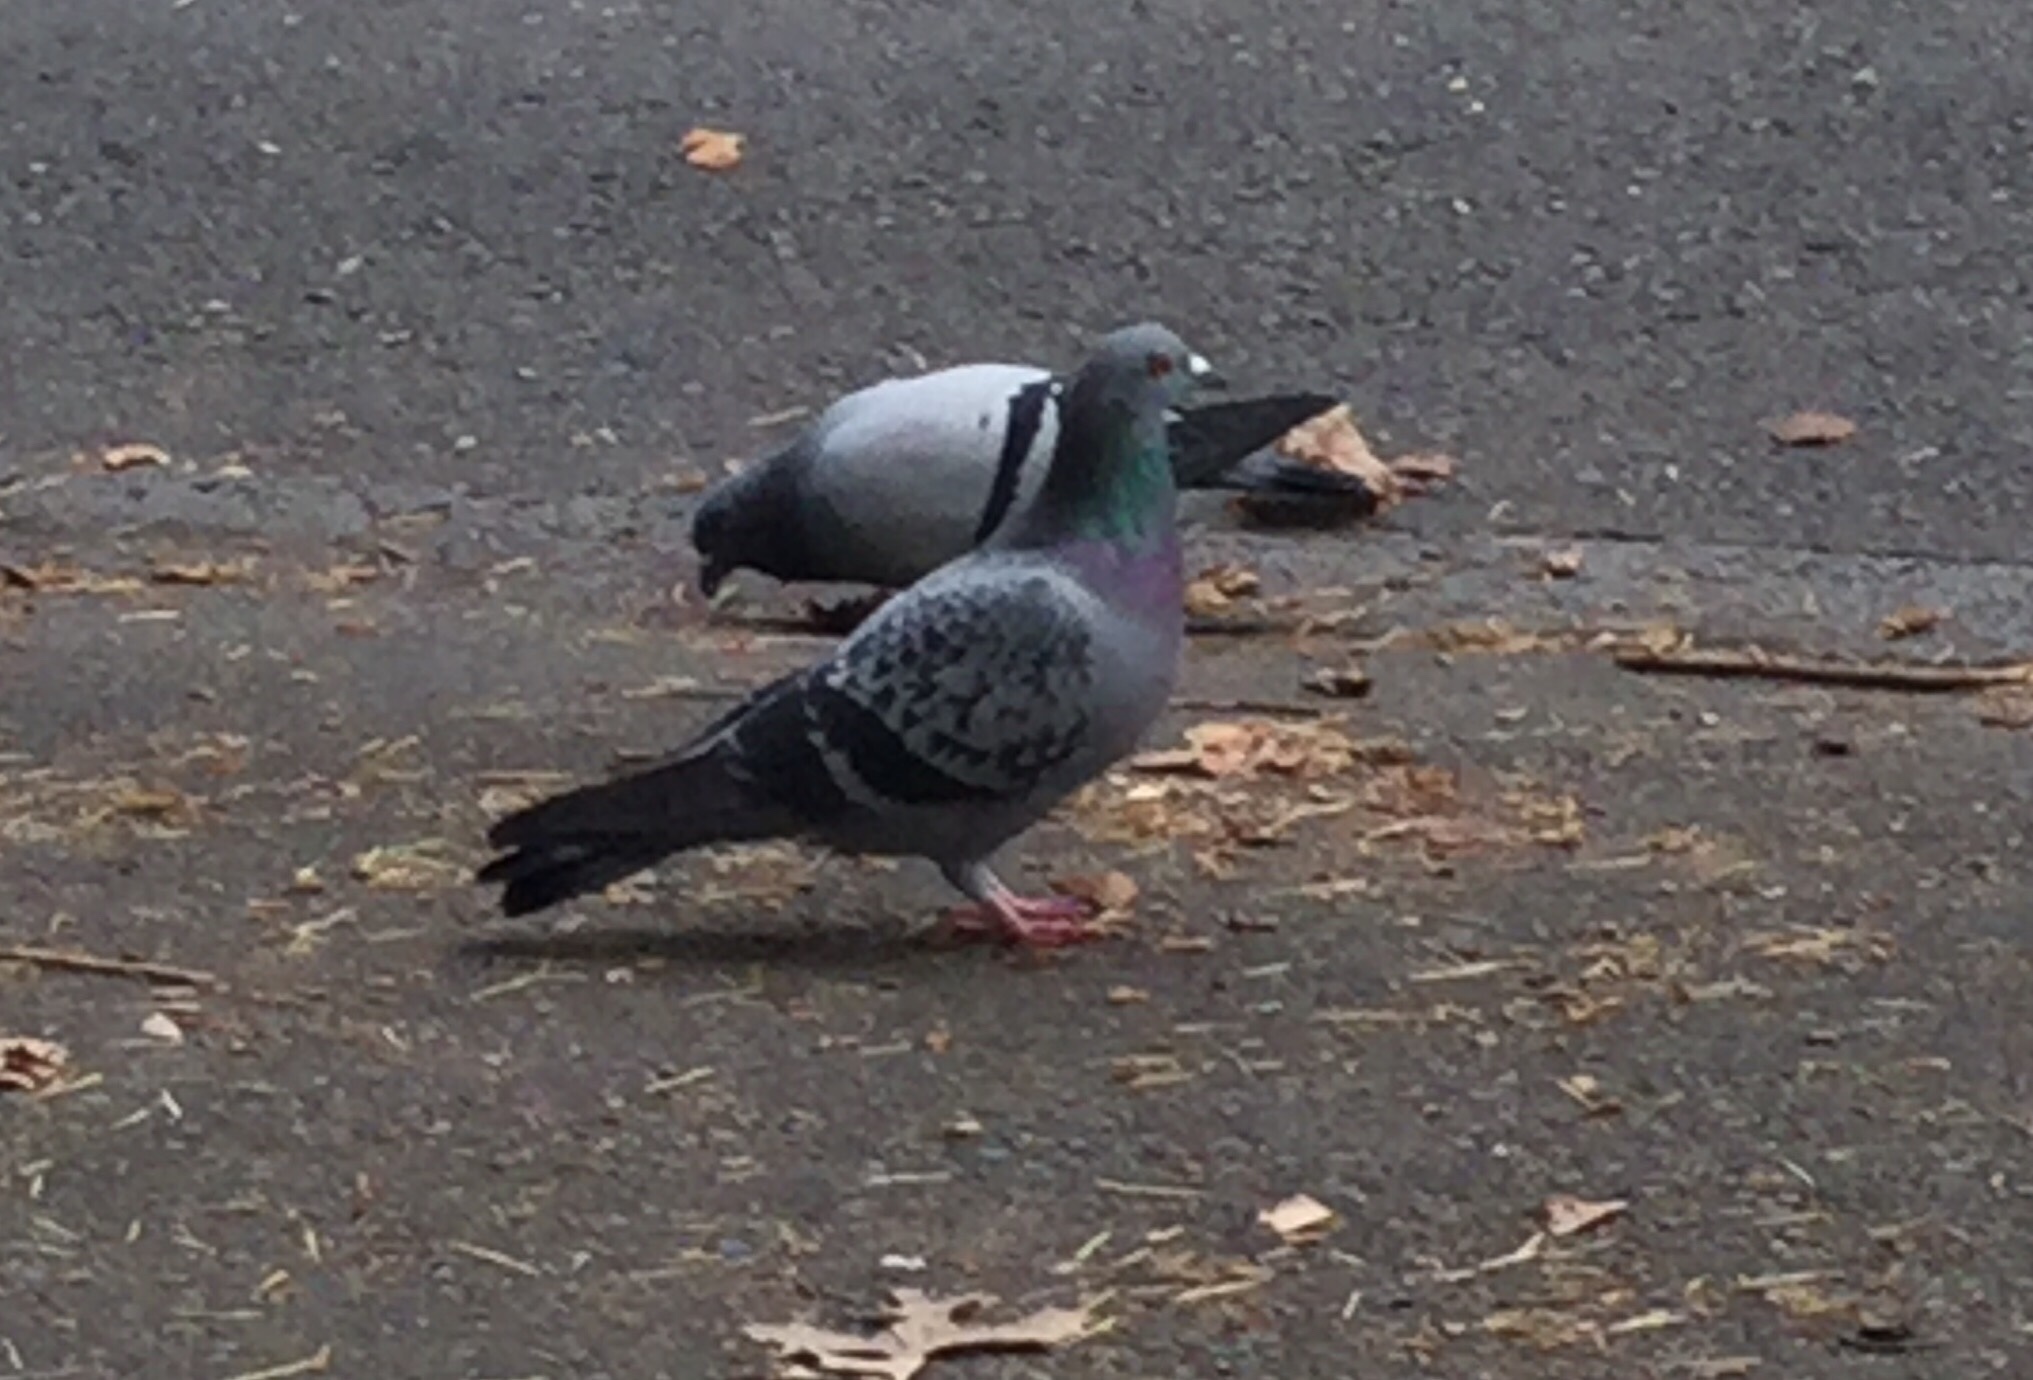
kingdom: Animalia
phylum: Chordata
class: Aves
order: Columbiformes
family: Columbidae
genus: Columba
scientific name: Columba livia
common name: Rock pigeon
